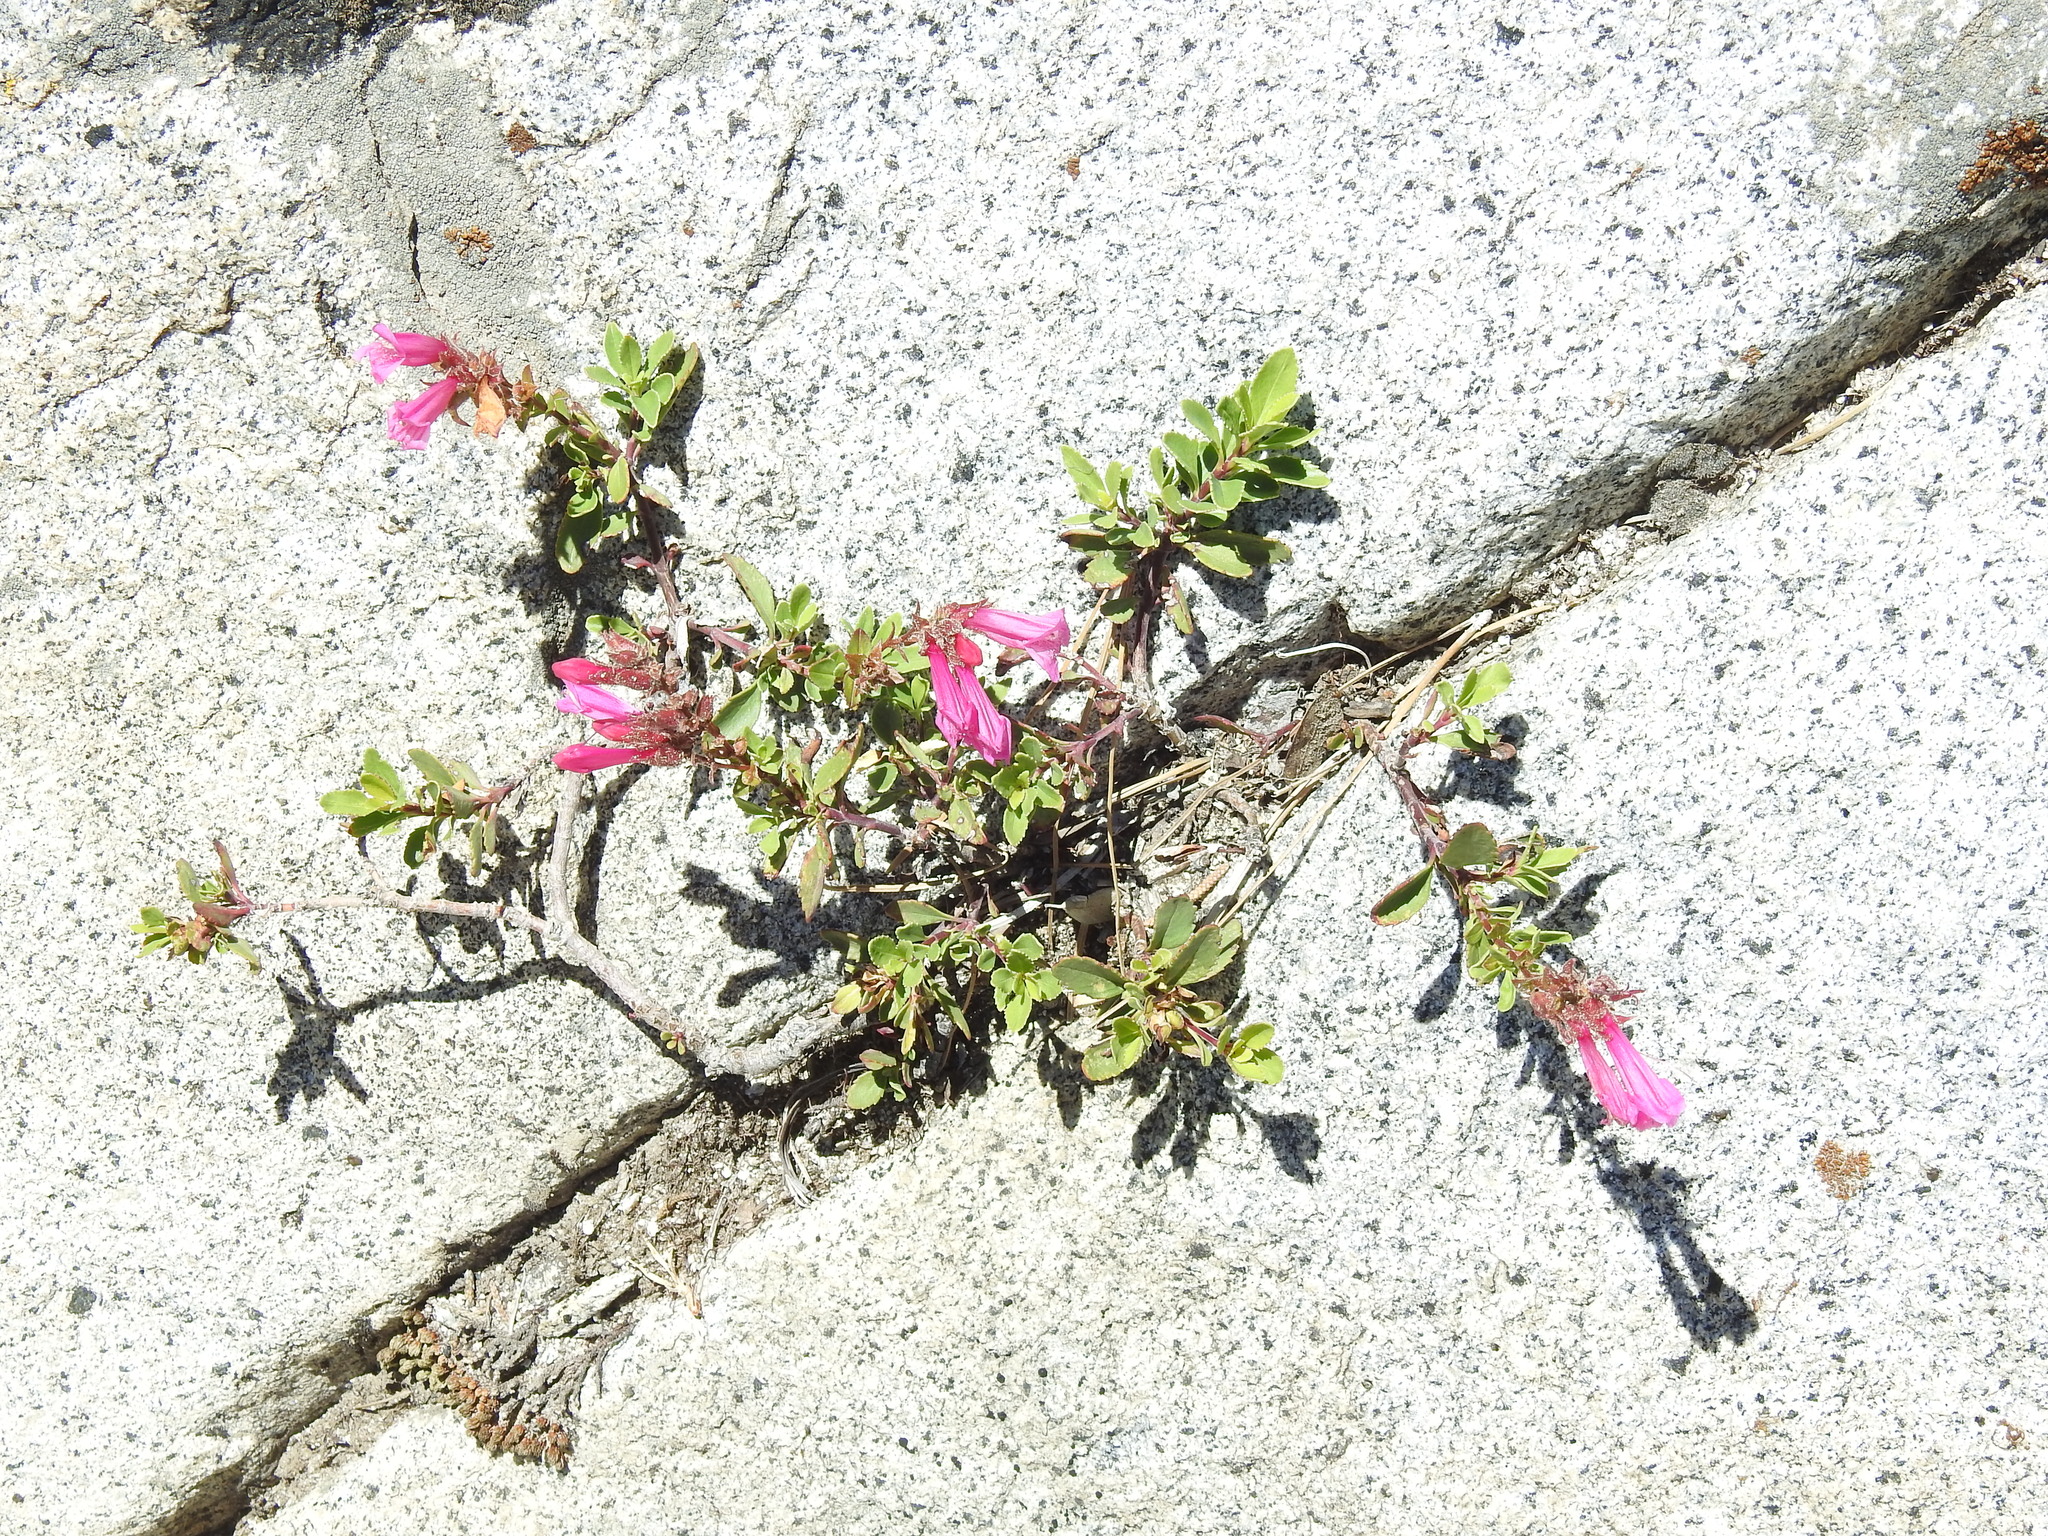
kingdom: Plantae
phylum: Tracheophyta
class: Magnoliopsida
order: Lamiales
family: Plantaginaceae
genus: Penstemon
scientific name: Penstemon newberryi
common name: Mountain-pride
